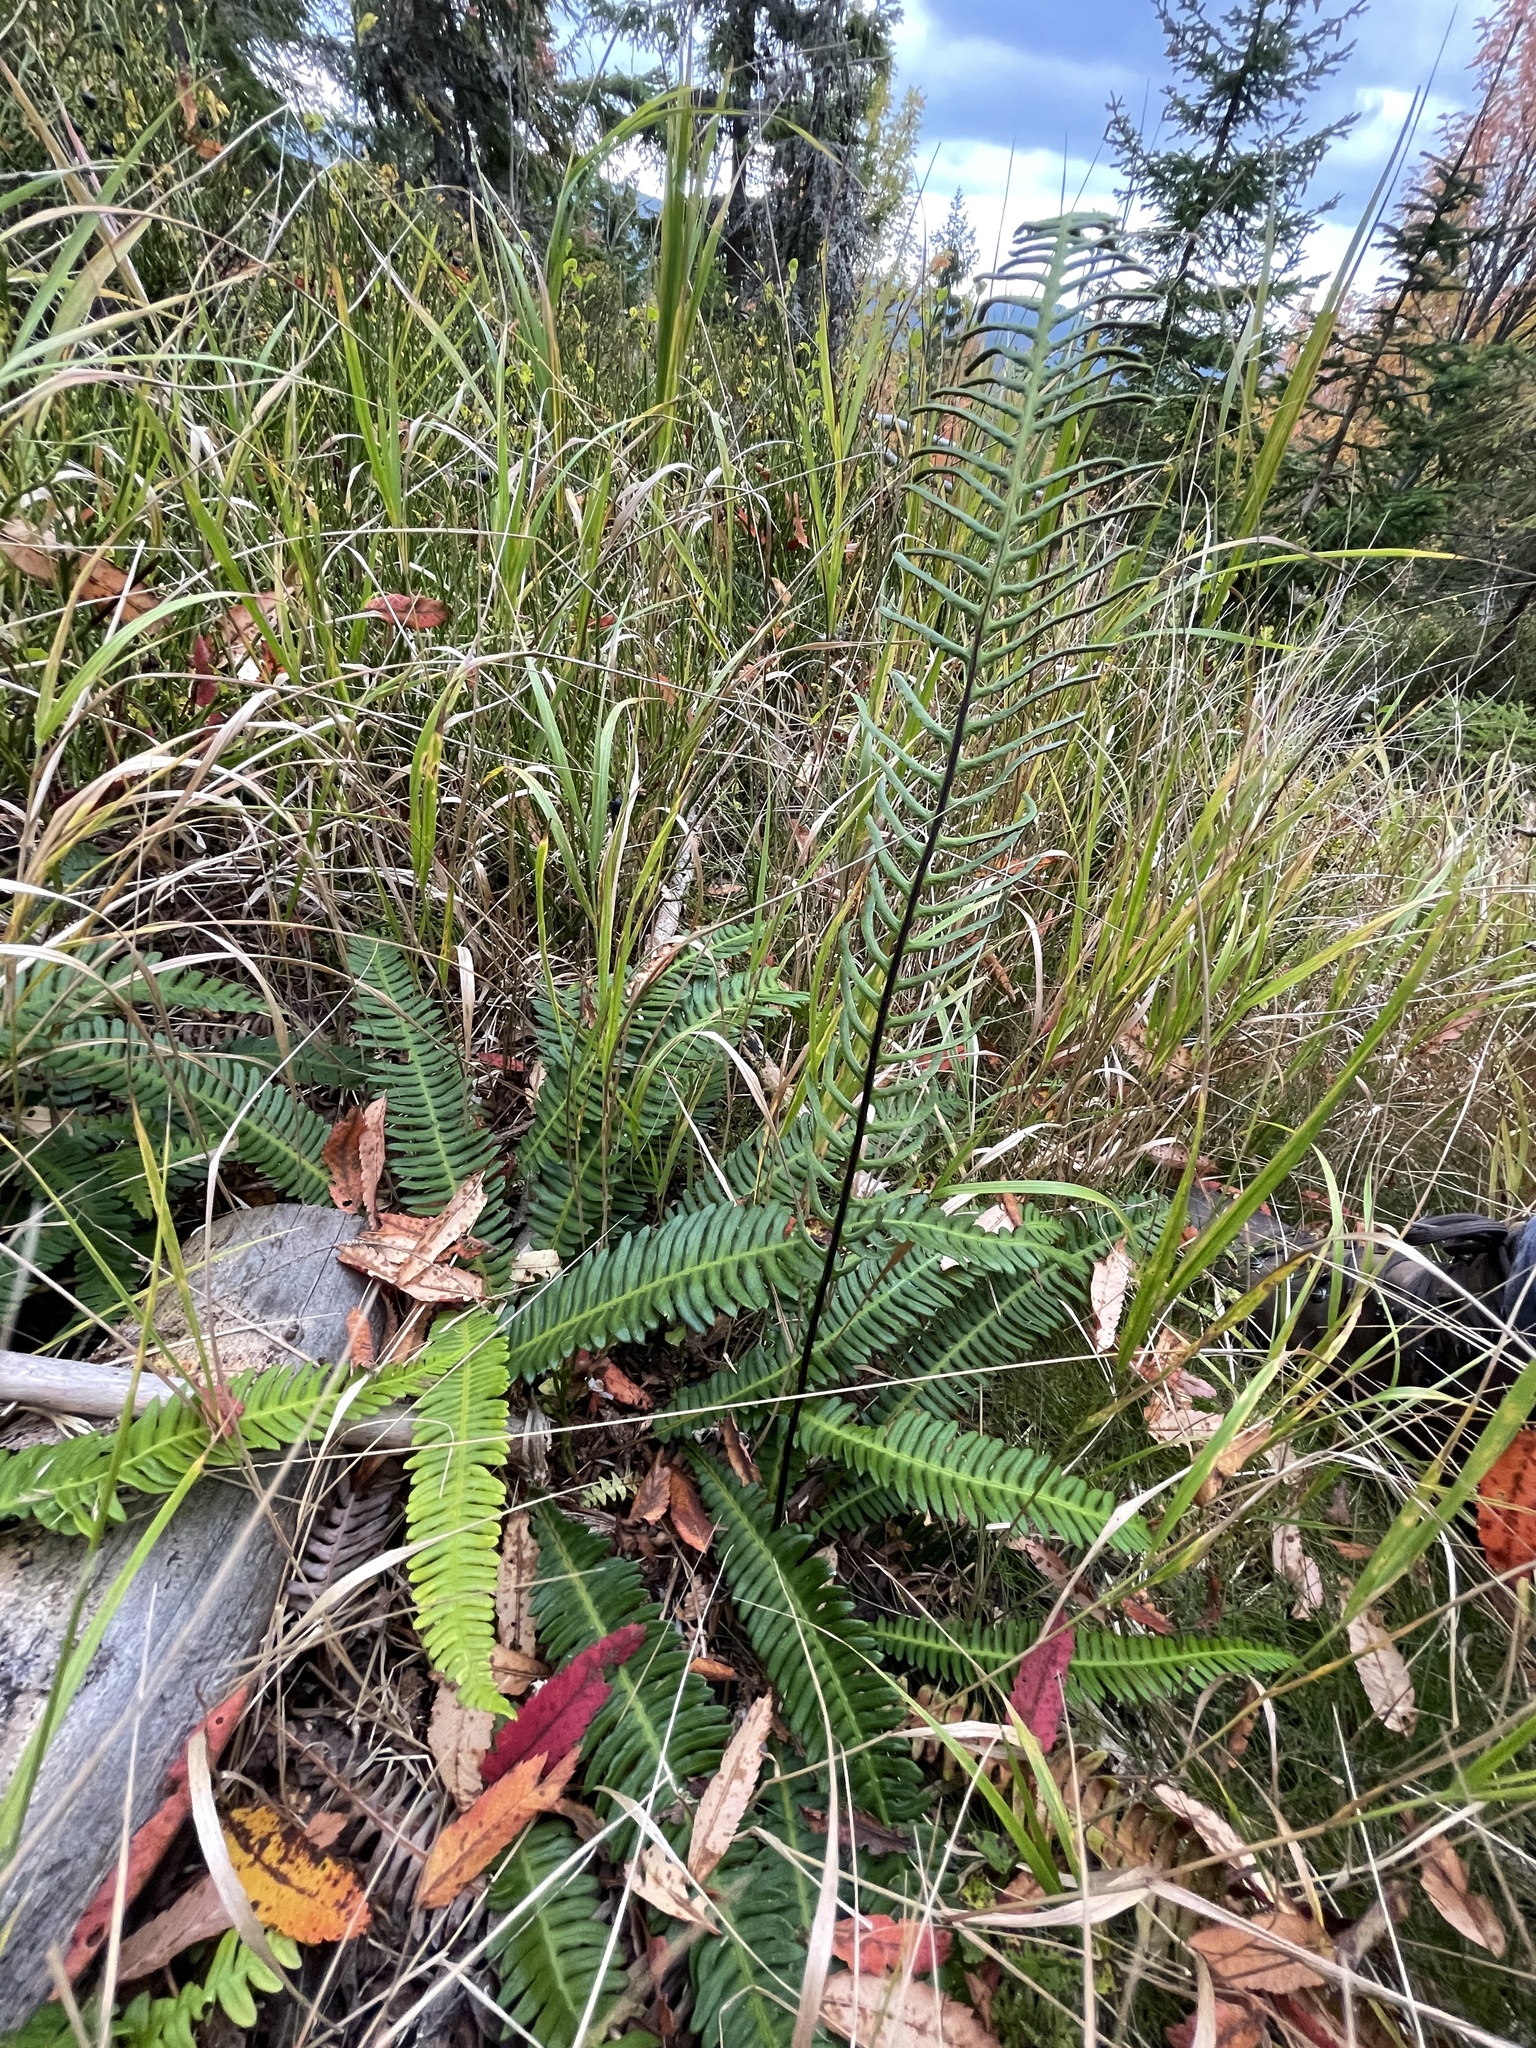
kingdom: Plantae
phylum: Tracheophyta
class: Polypodiopsida
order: Polypodiales
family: Blechnaceae
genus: Struthiopteris
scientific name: Struthiopteris spicant
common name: Deer fern
